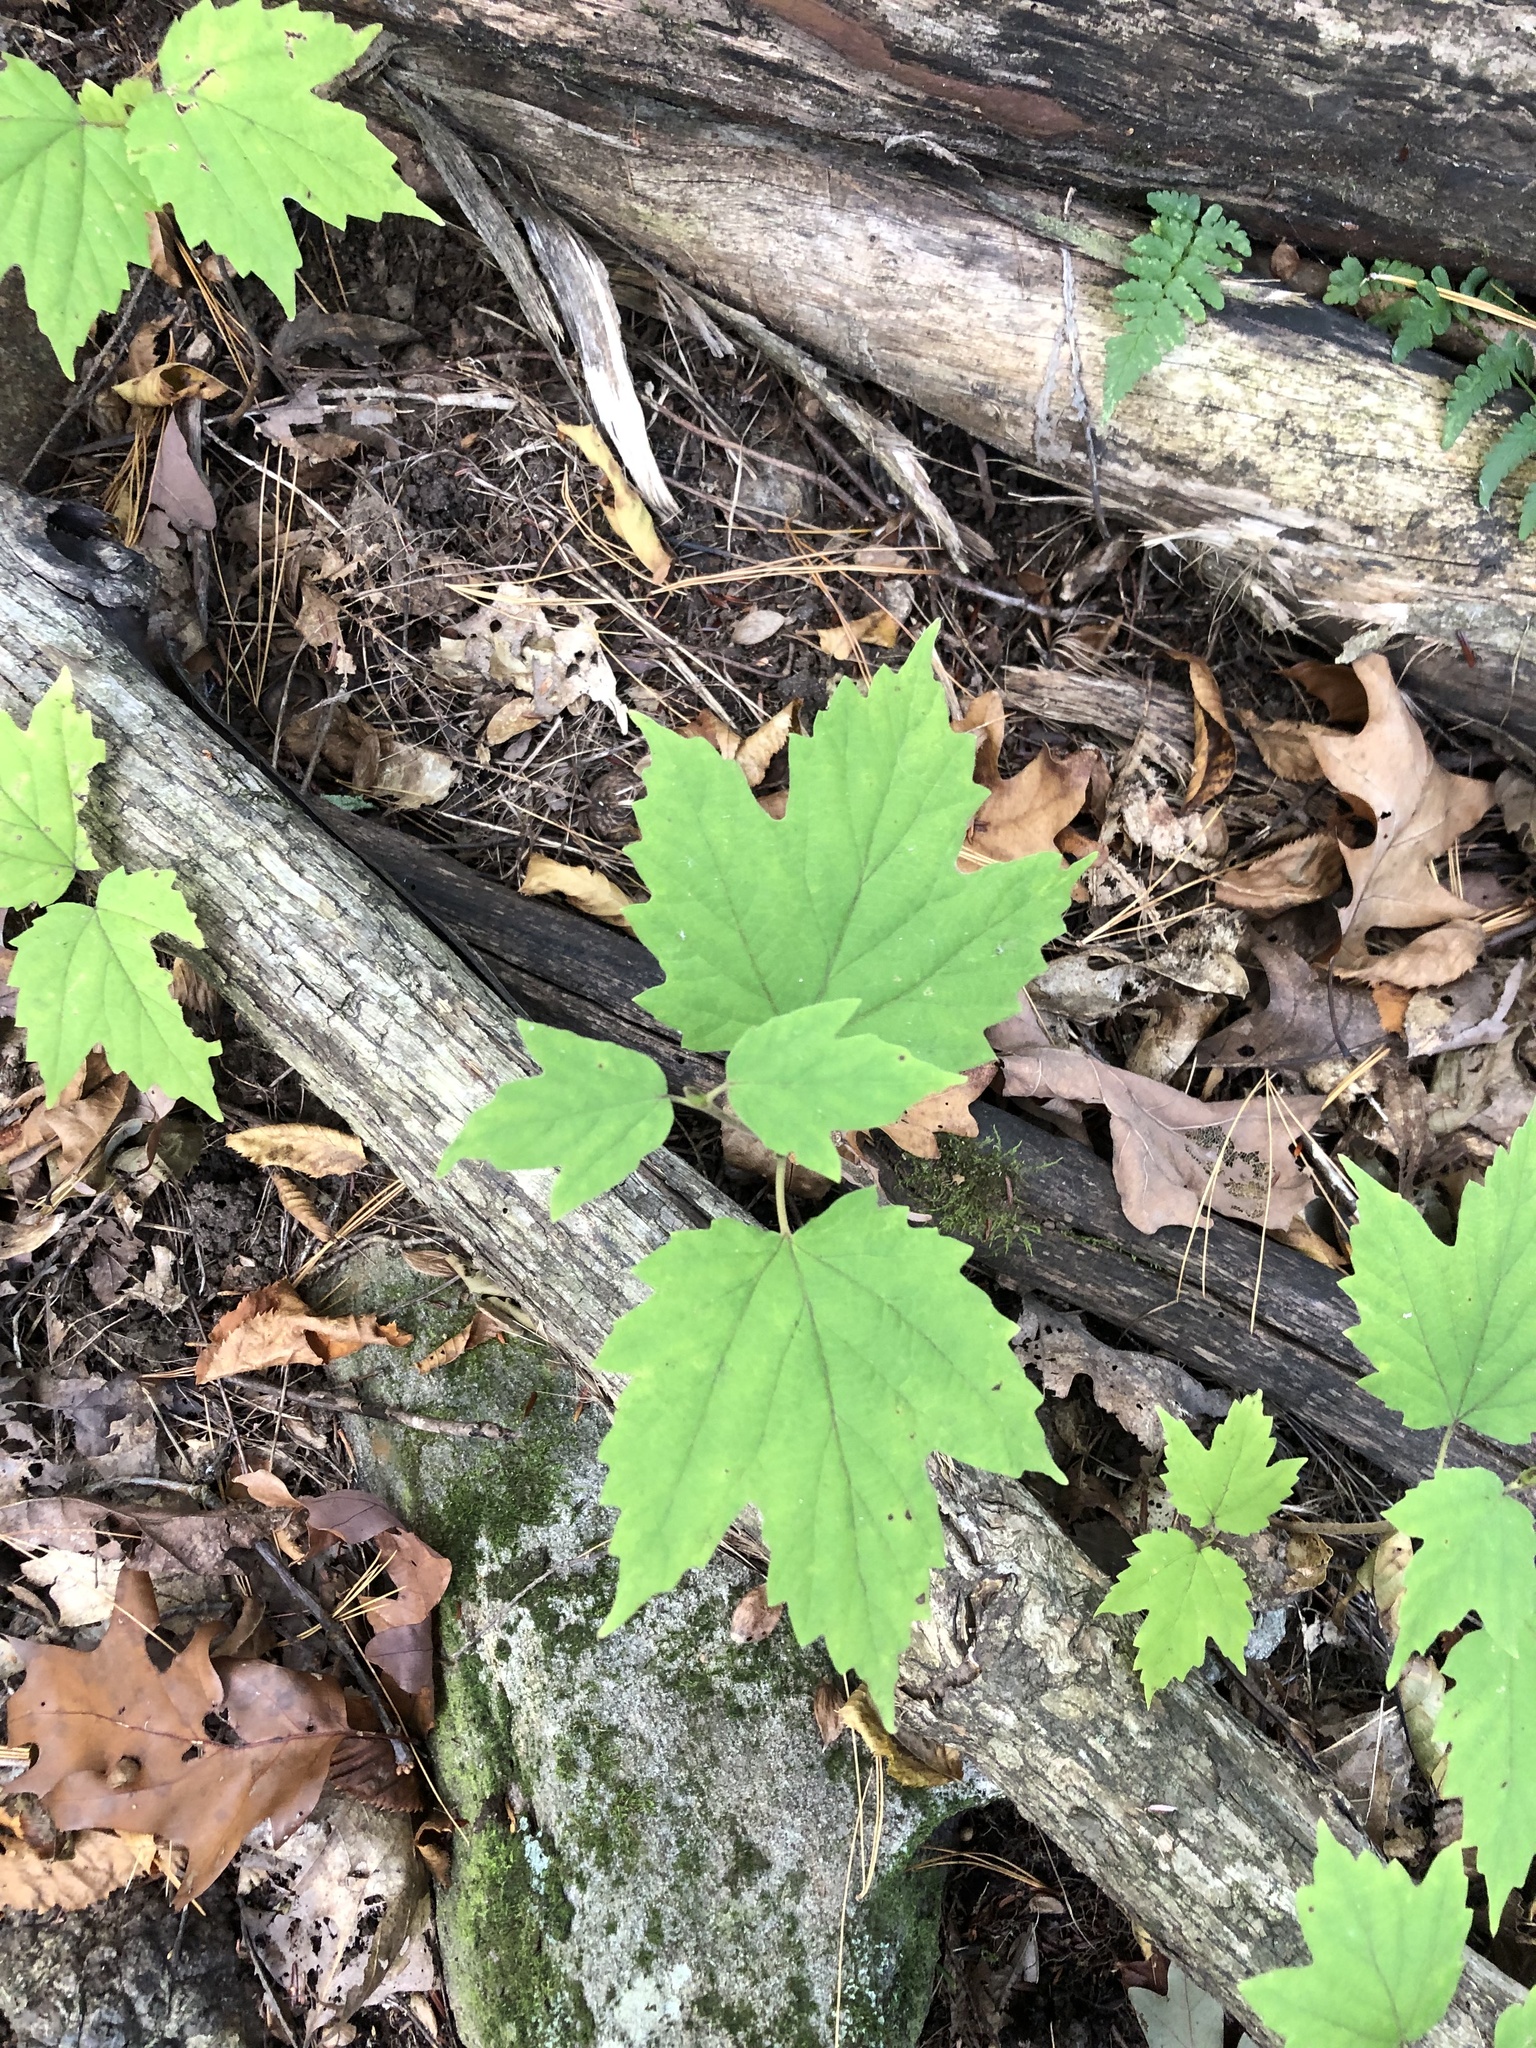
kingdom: Plantae
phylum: Tracheophyta
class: Magnoliopsida
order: Dipsacales
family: Viburnaceae
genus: Viburnum
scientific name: Viburnum acerifolium
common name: Dockmackie
